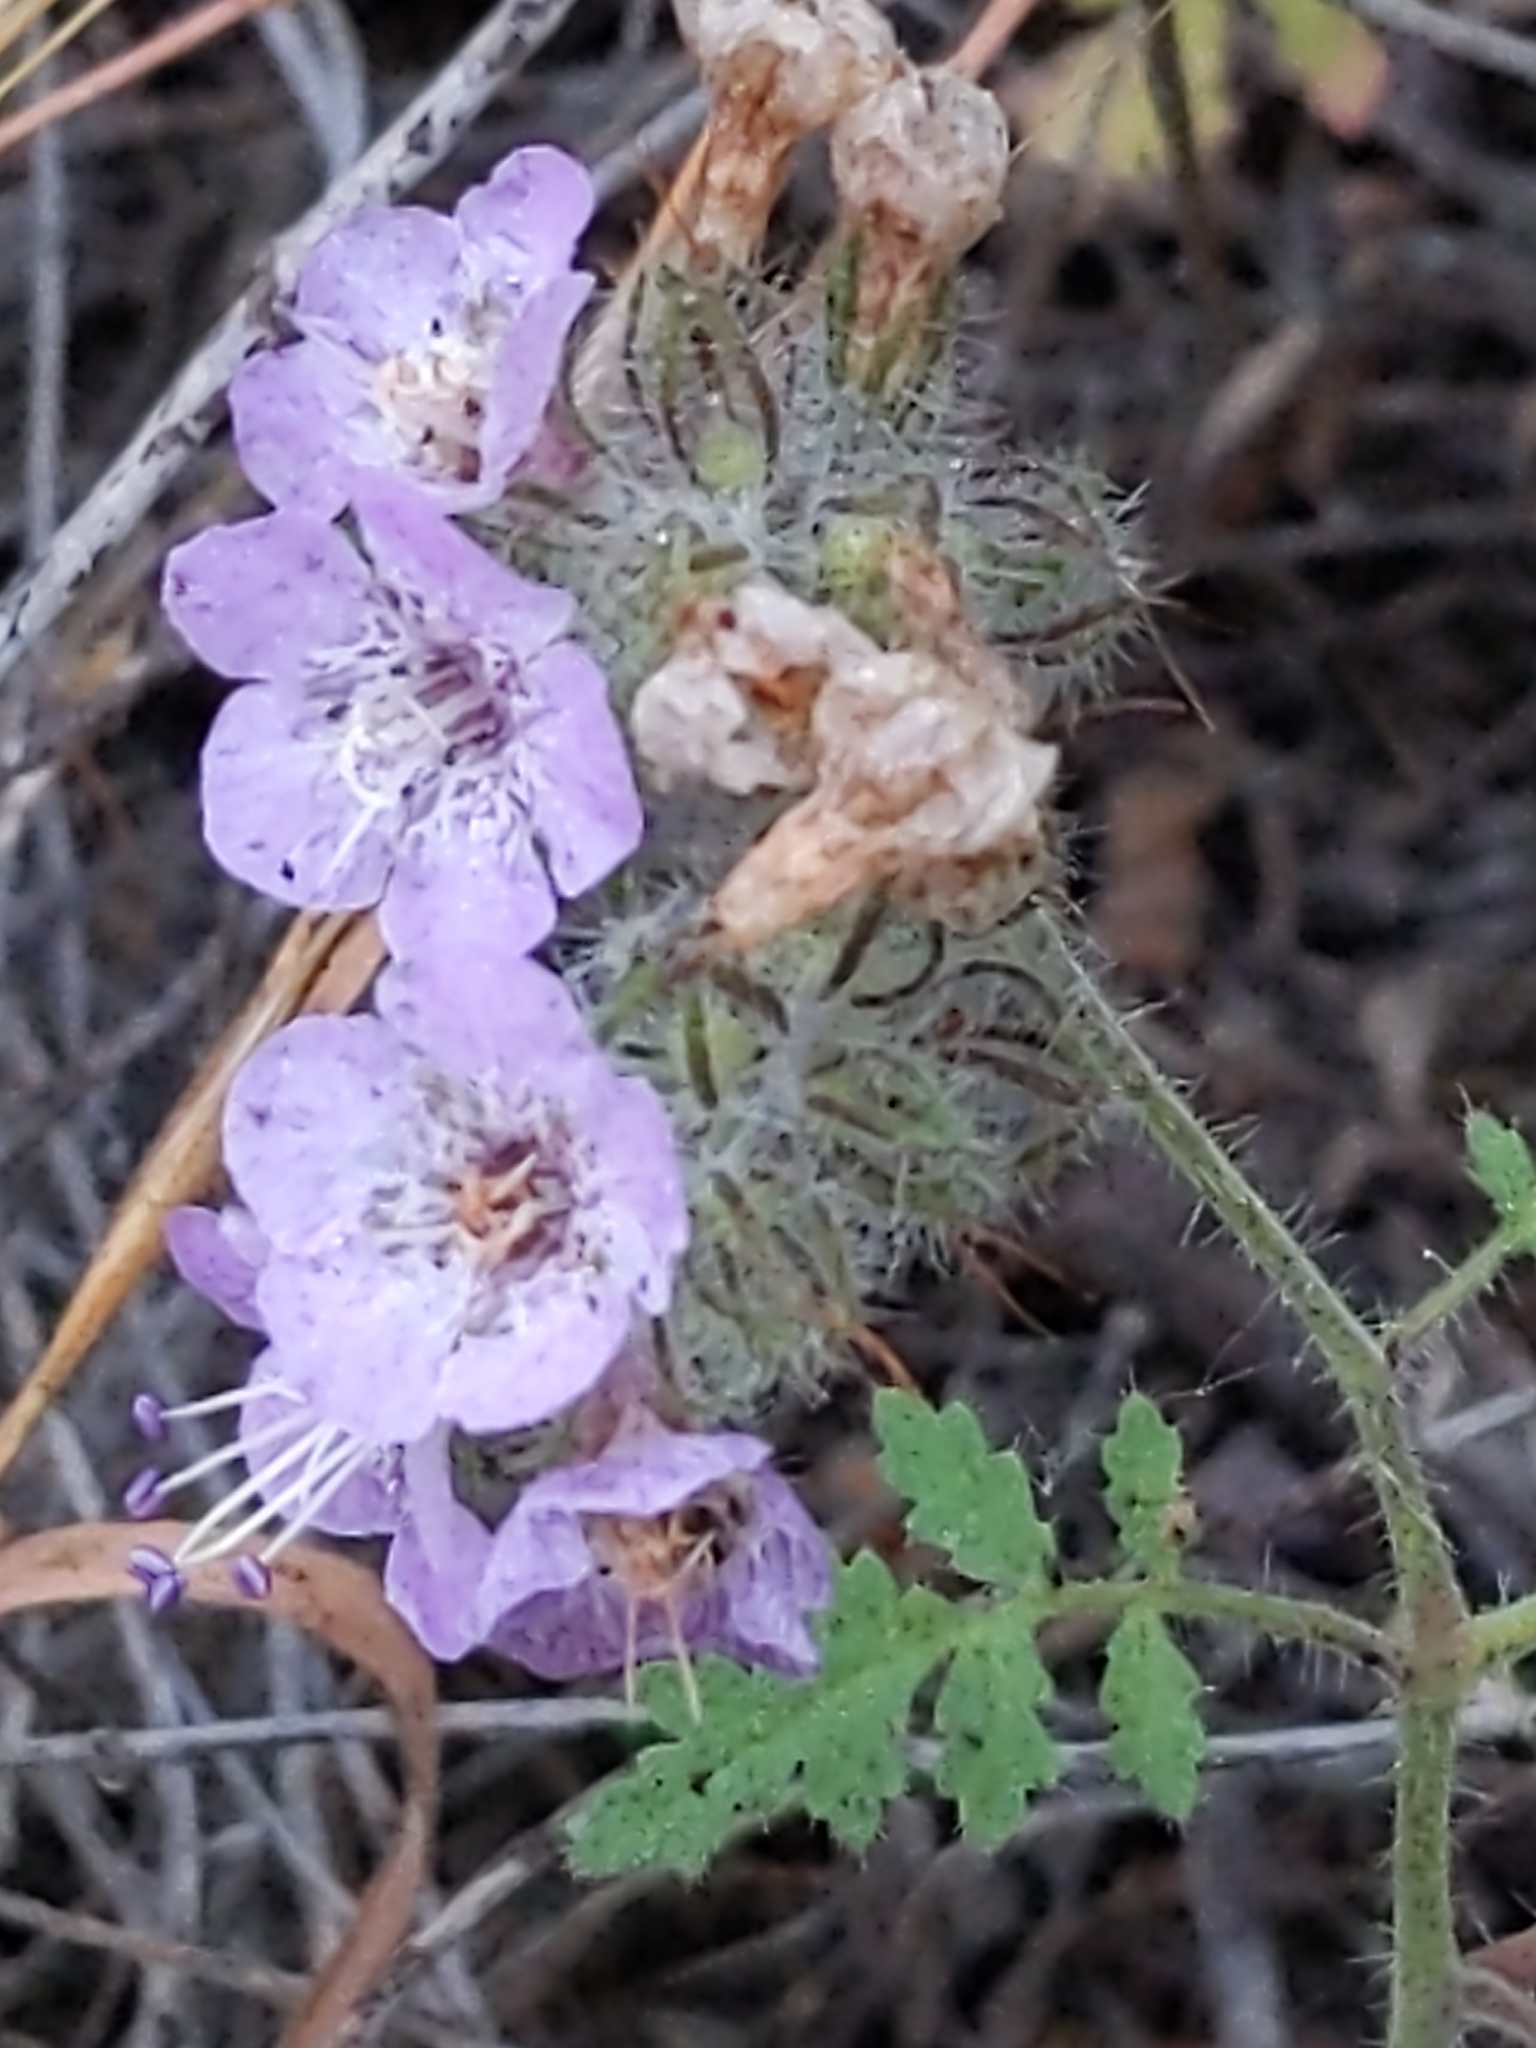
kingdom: Plantae
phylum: Tracheophyta
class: Magnoliopsida
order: Boraginales
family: Hydrophyllaceae
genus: Phacelia
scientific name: Phacelia cicutaria
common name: Caterpillar phacelia
